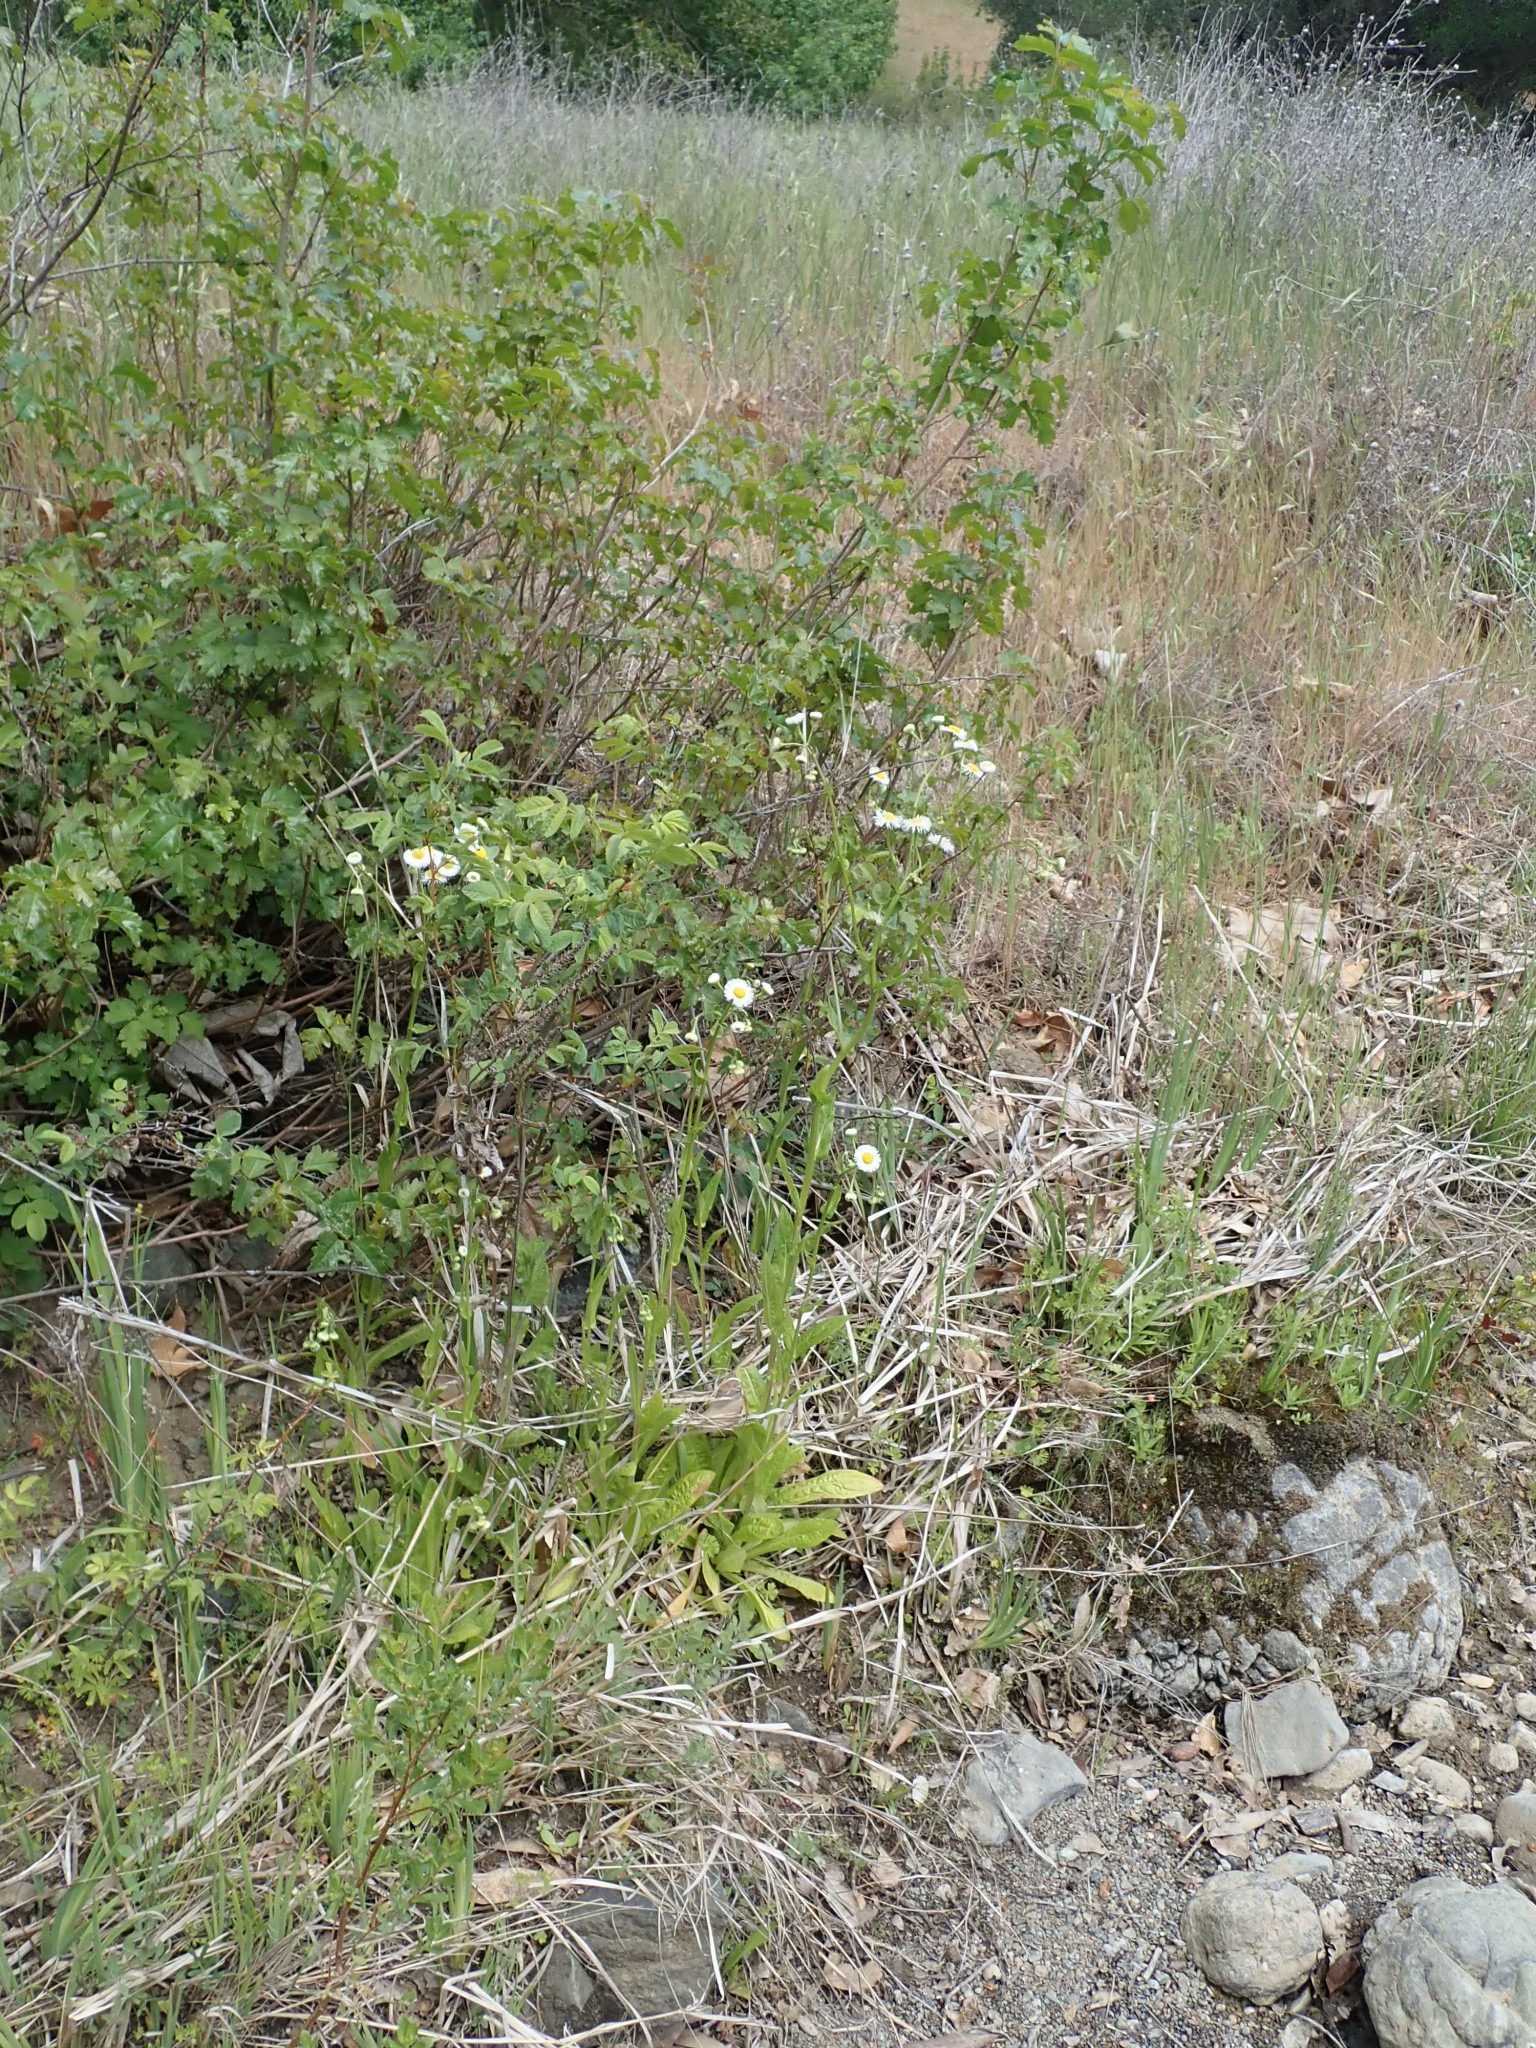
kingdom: Plantae
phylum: Tracheophyta
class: Magnoliopsida
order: Asterales
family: Asteraceae
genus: Erigeron
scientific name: Erigeron philadelphicus
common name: Robin's-plantain
